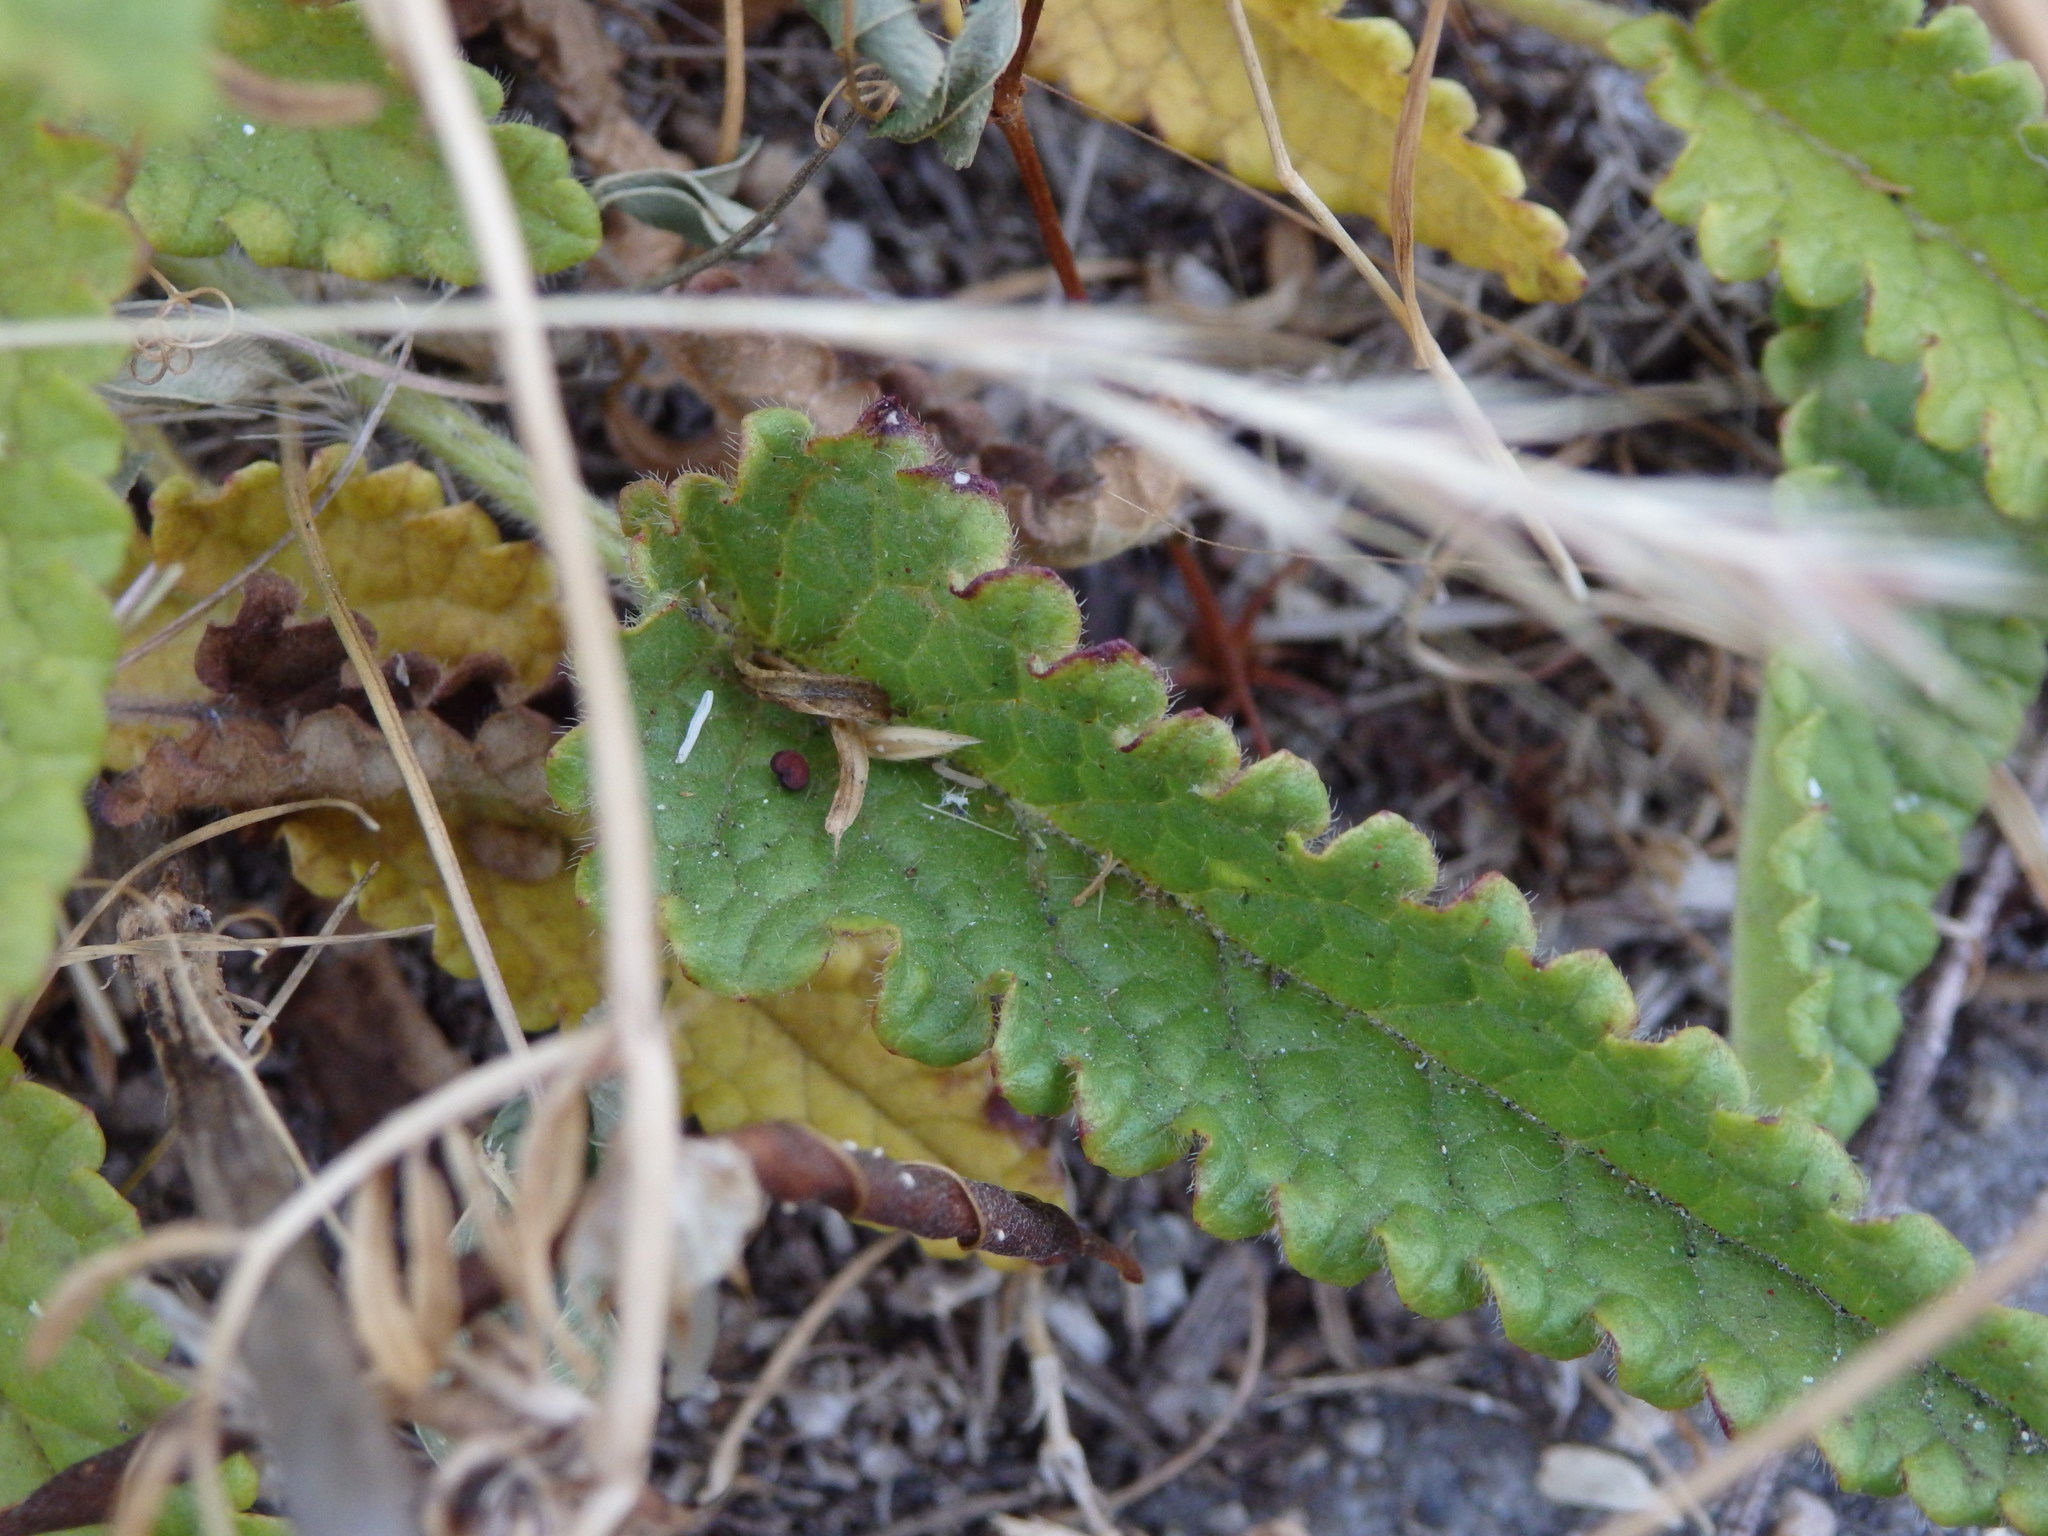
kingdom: Plantae
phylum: Tracheophyta
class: Magnoliopsida
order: Lamiales
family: Lamiaceae
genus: Betonica
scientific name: Betonica officinalis
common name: Bishop's-wort
